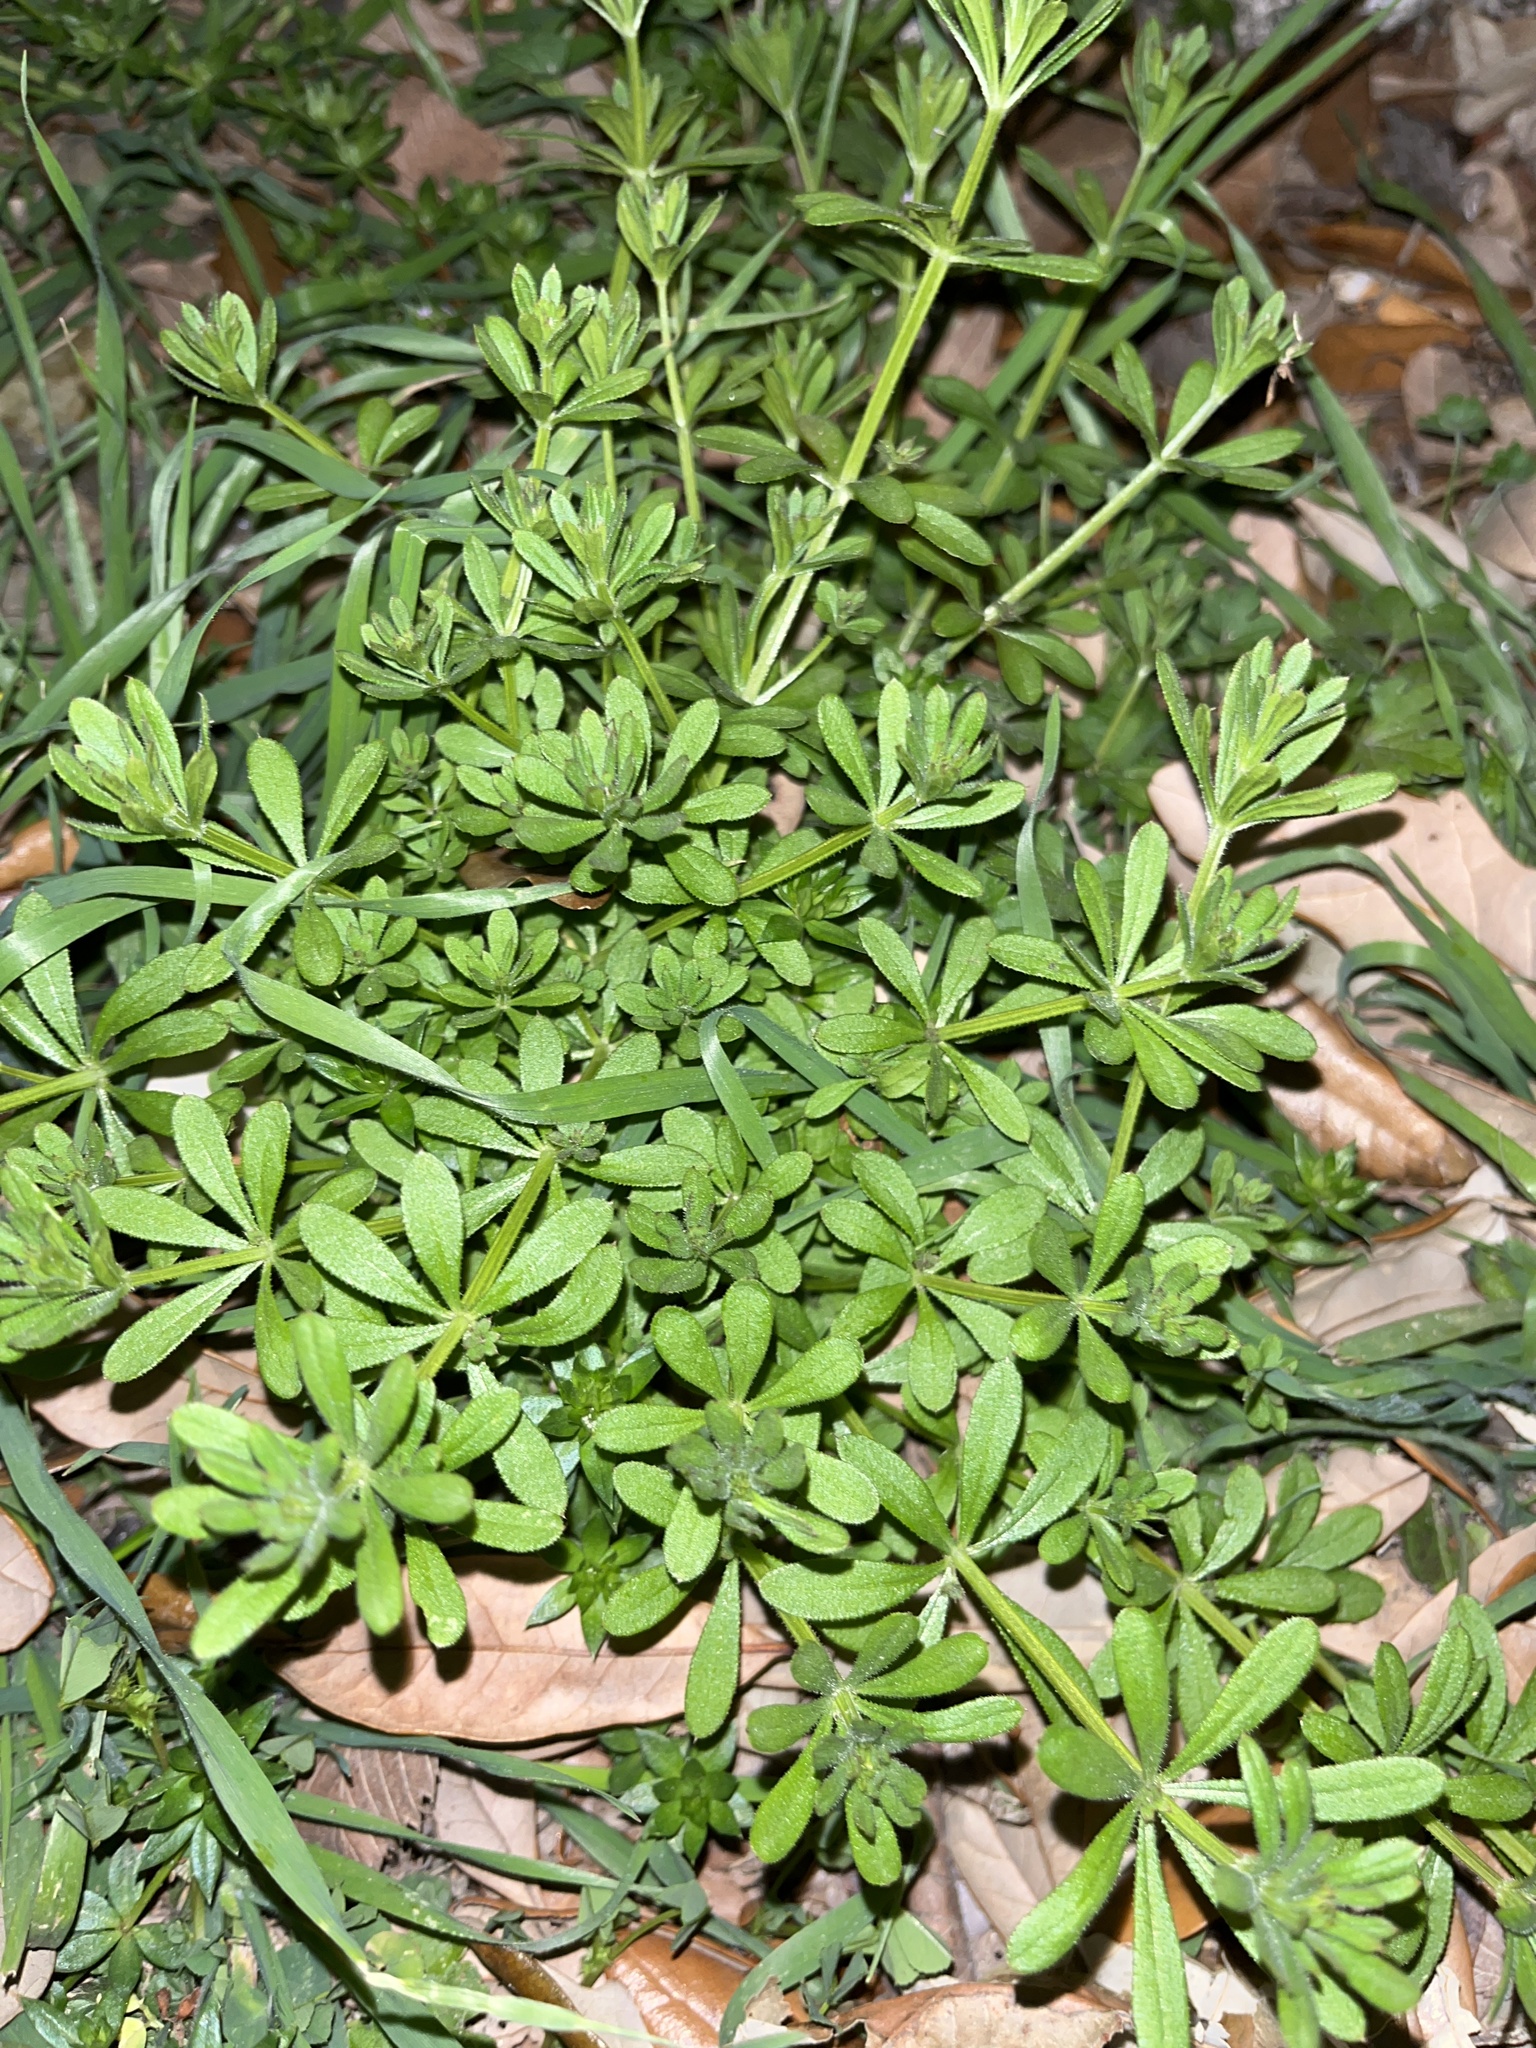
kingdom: Plantae
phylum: Tracheophyta
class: Magnoliopsida
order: Gentianales
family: Rubiaceae
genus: Galium
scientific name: Galium aparine
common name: Cleavers
